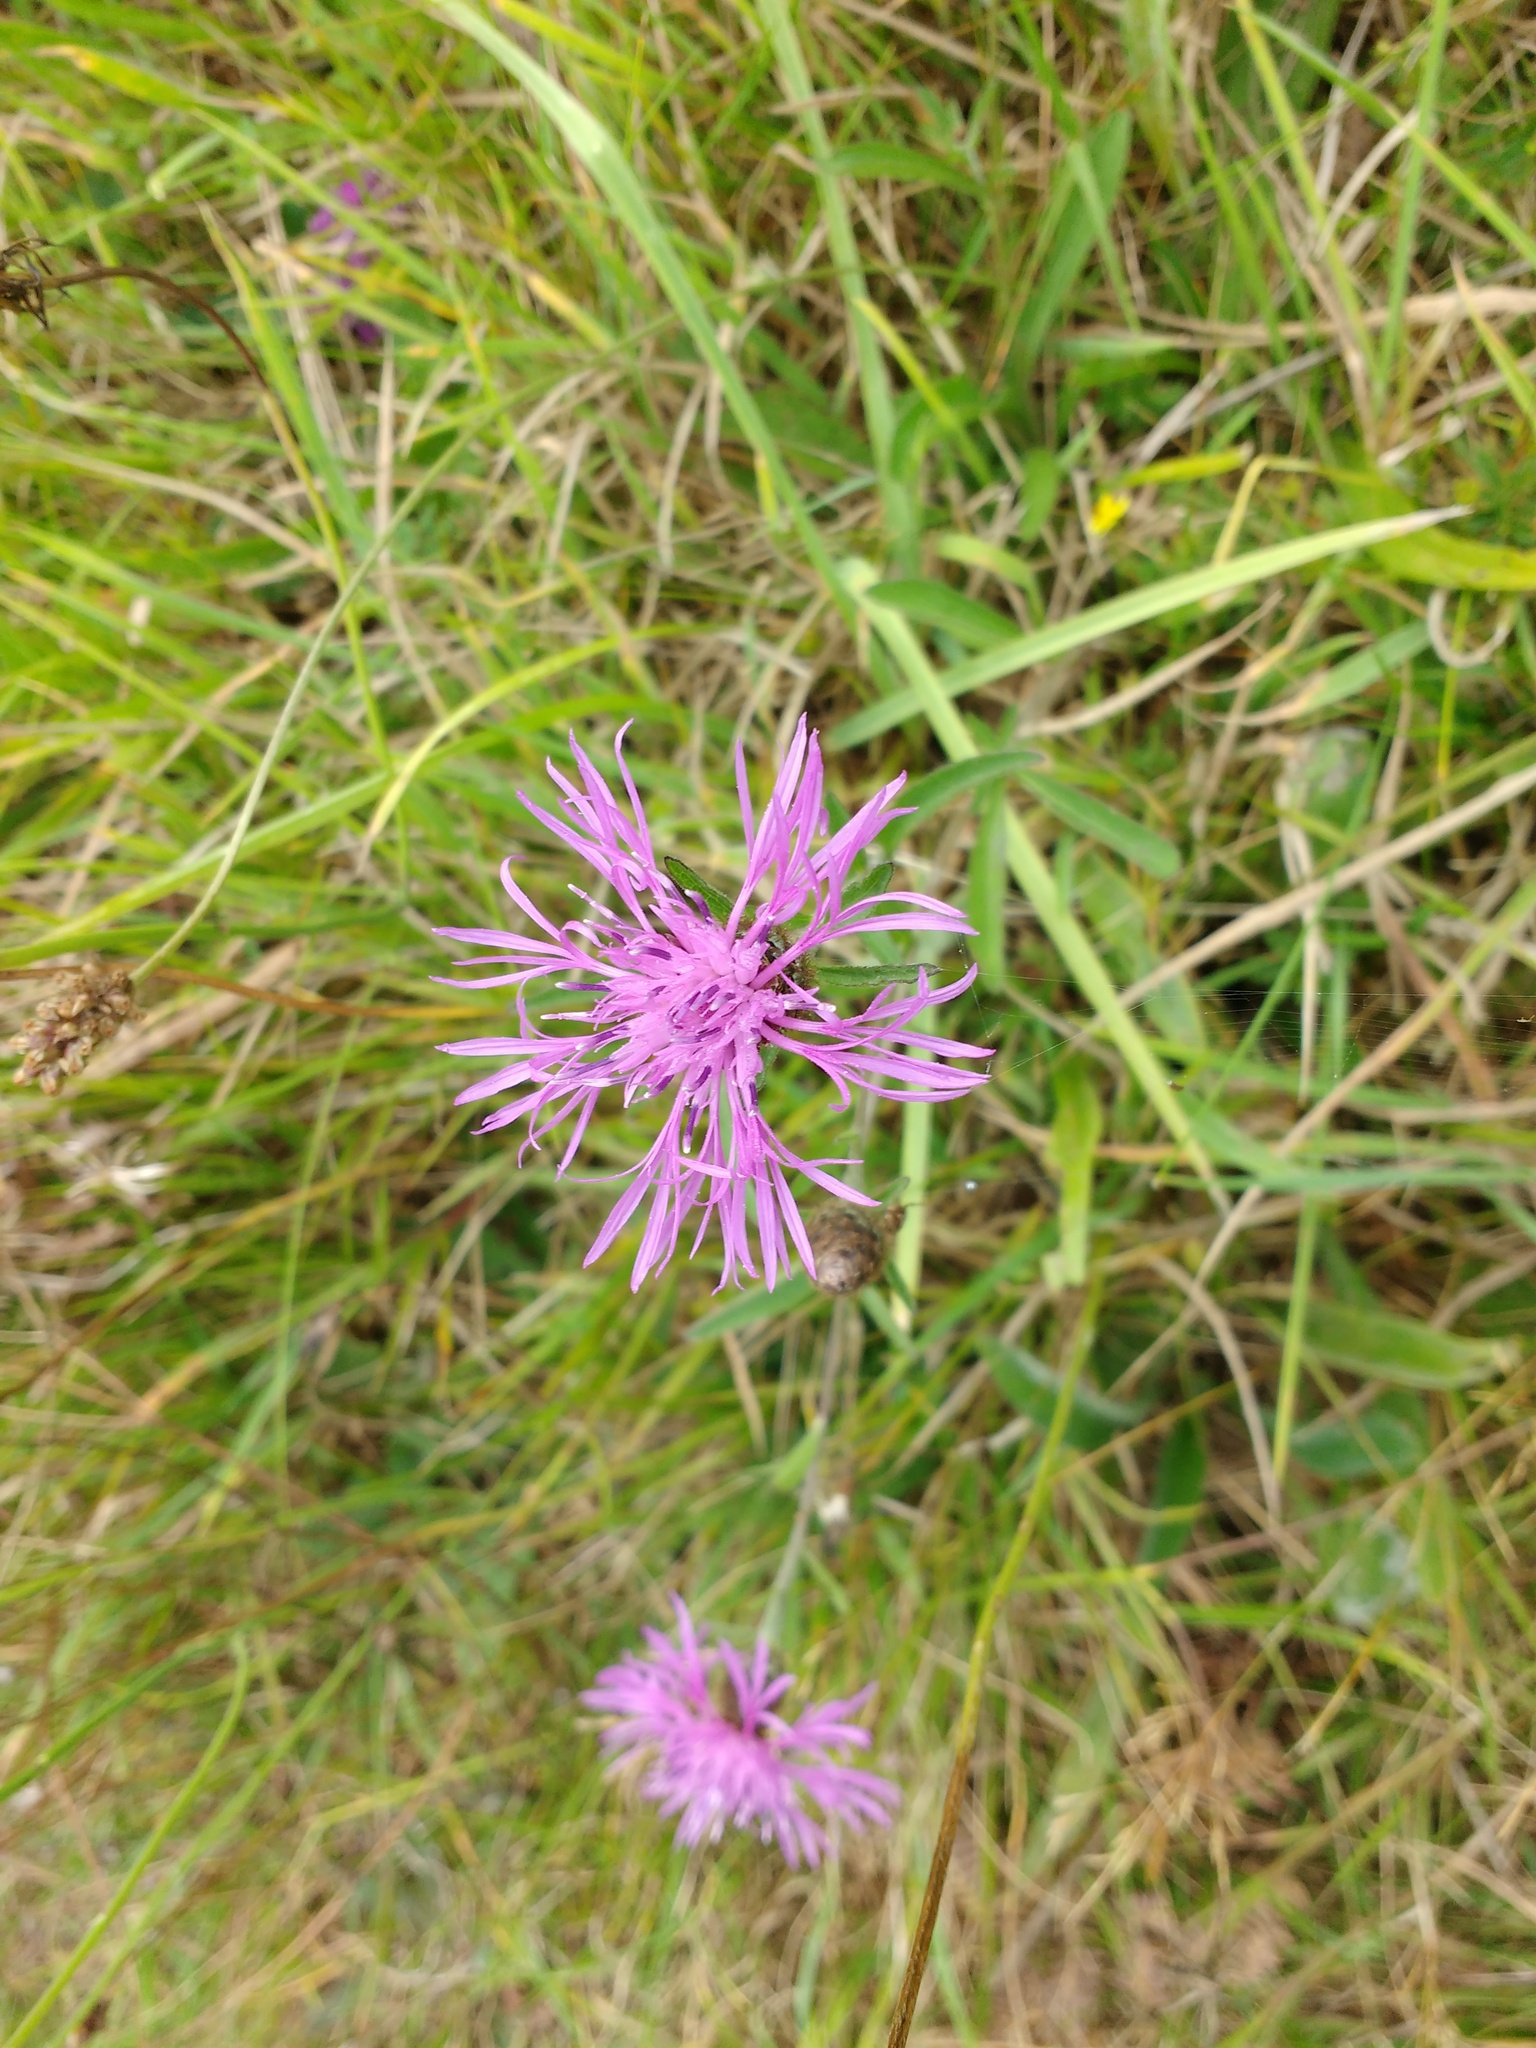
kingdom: Plantae
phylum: Tracheophyta
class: Magnoliopsida
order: Asterales
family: Asteraceae
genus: Centaurea
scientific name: Centaurea scabiosa
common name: Greater knapweed
